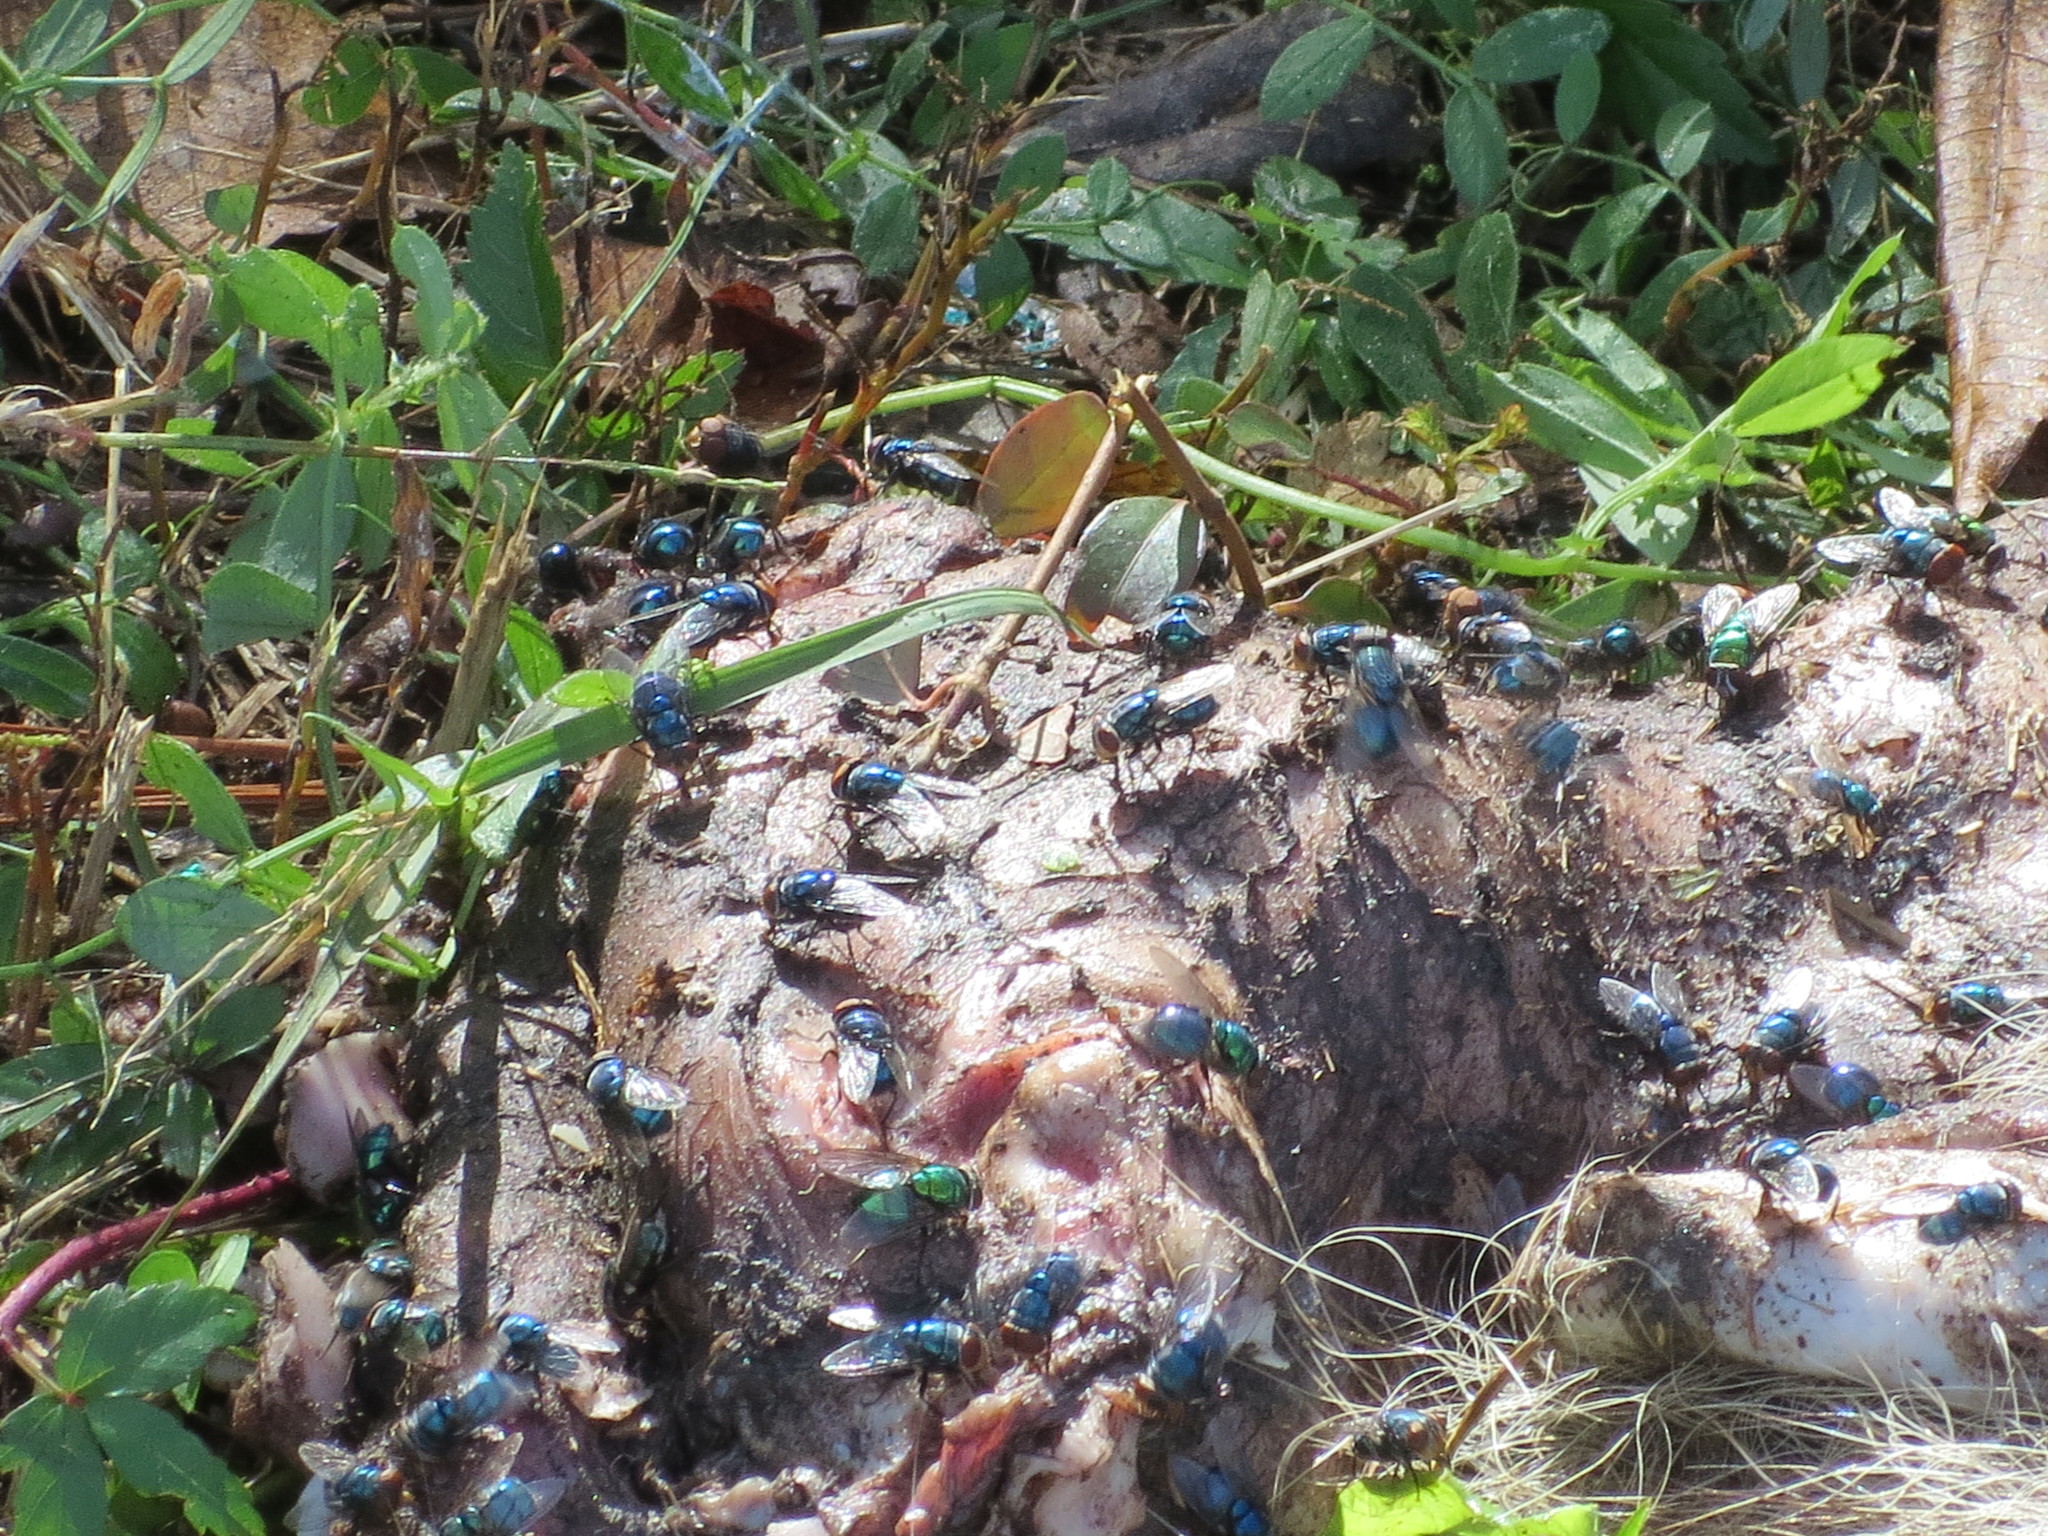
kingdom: Animalia
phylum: Arthropoda
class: Insecta
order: Diptera
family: Calliphoridae
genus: Chrysomya
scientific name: Chrysomya megacephala
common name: Blow fly
